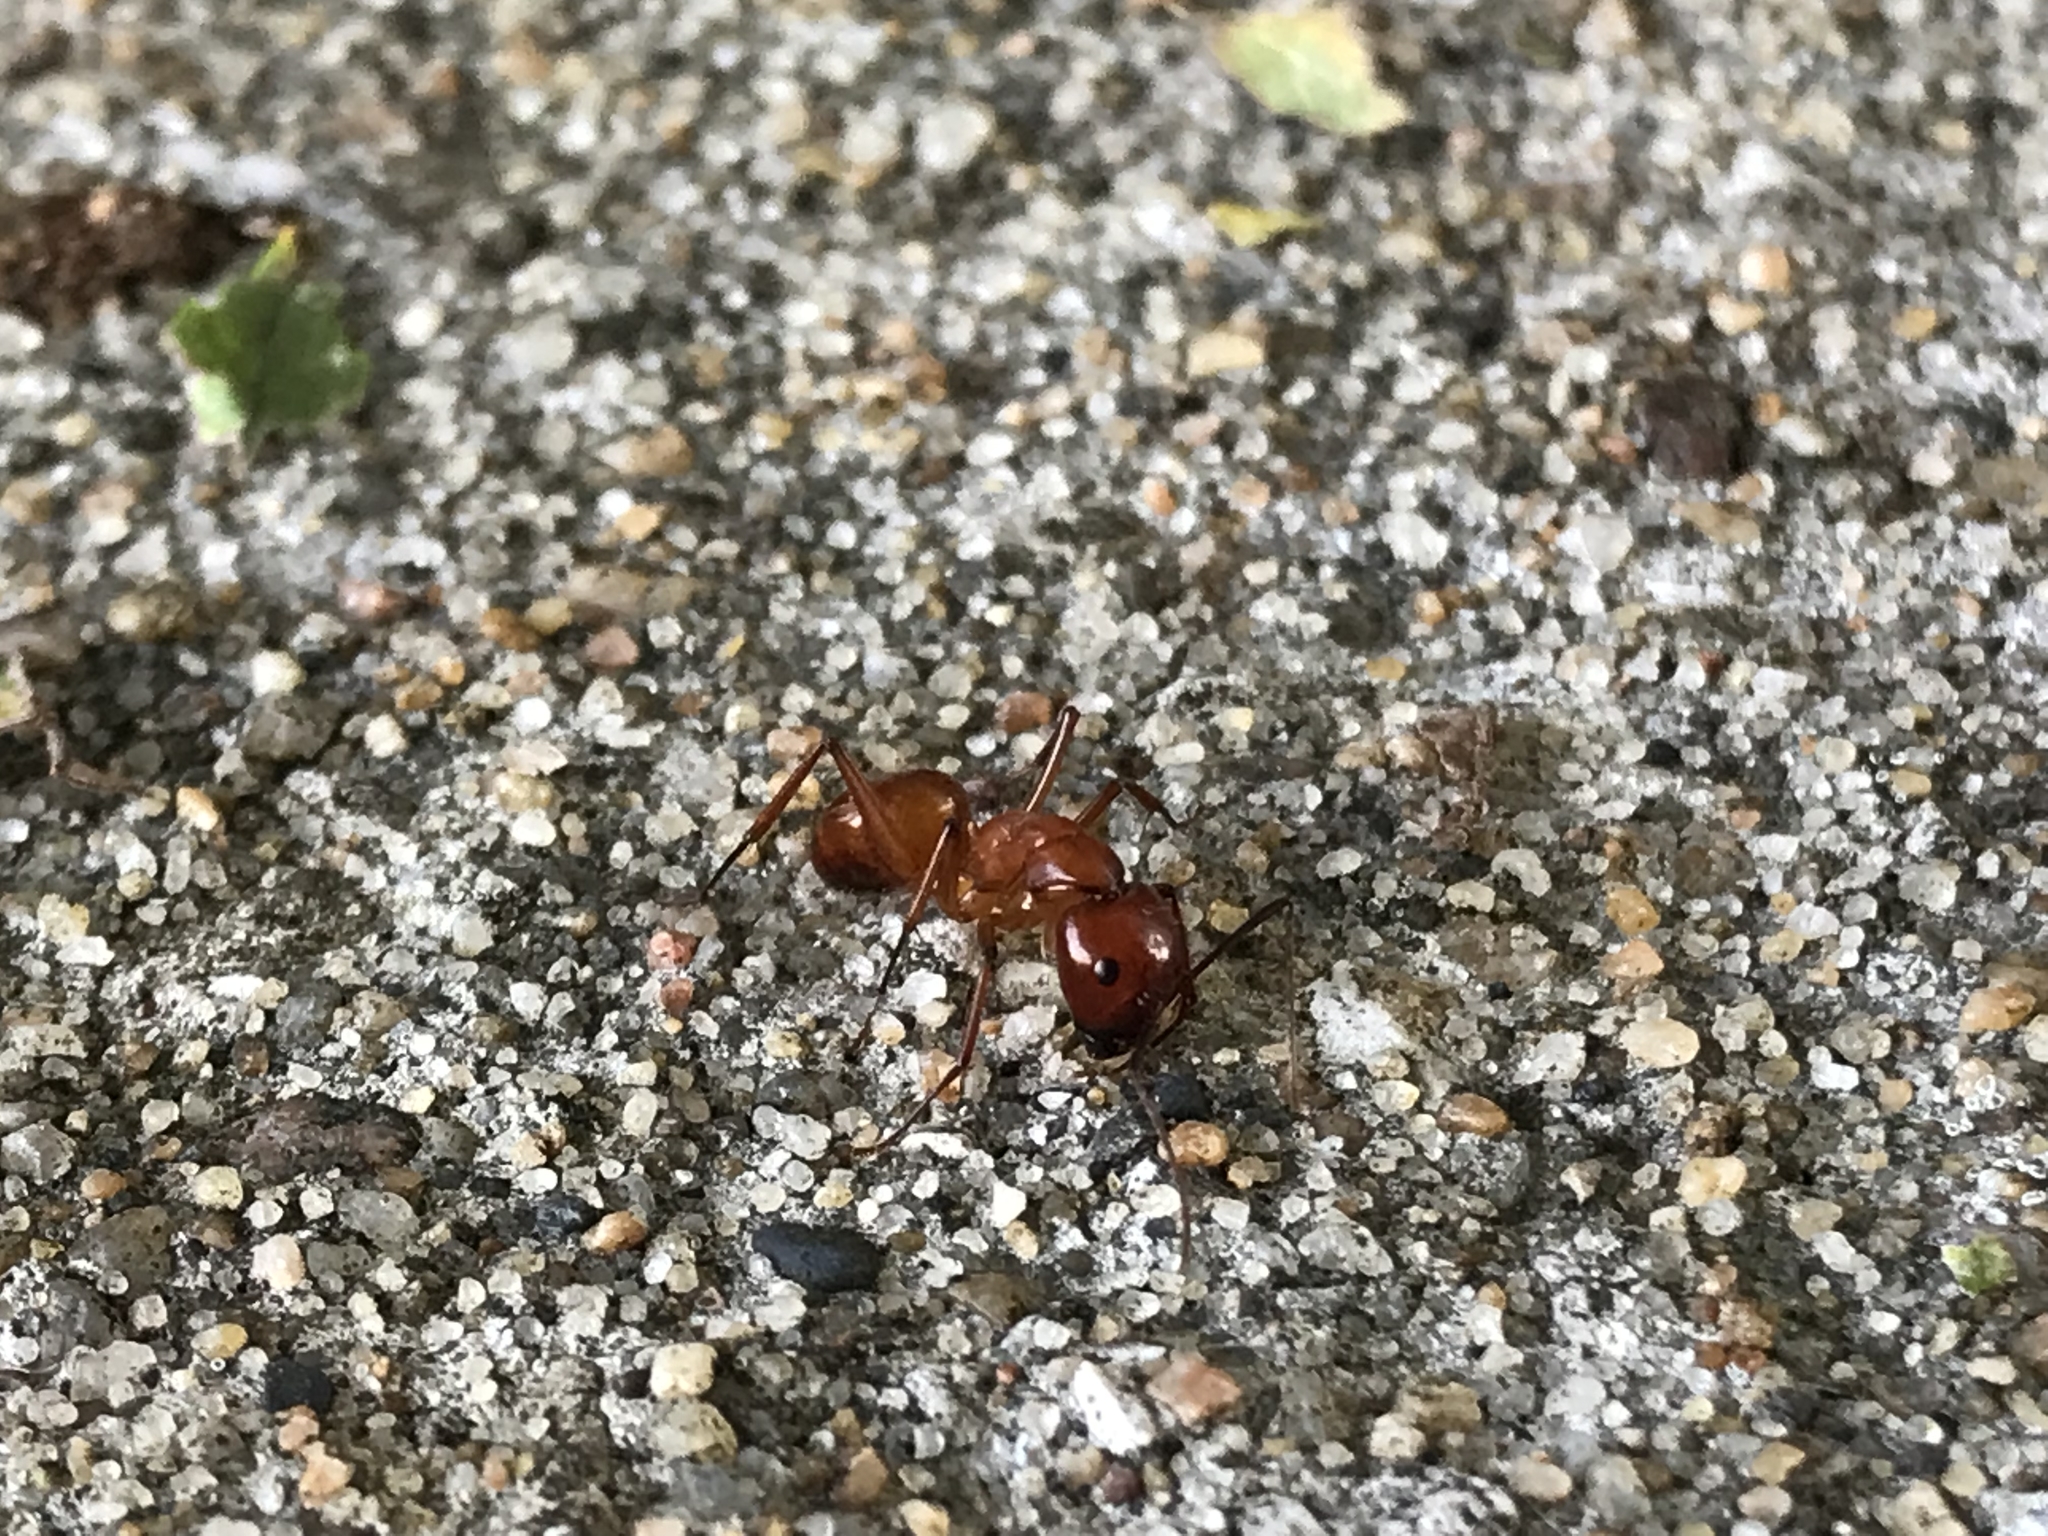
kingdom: Animalia
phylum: Arthropoda
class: Insecta
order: Hymenoptera
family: Formicidae
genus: Camponotus
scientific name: Camponotus castaneus
